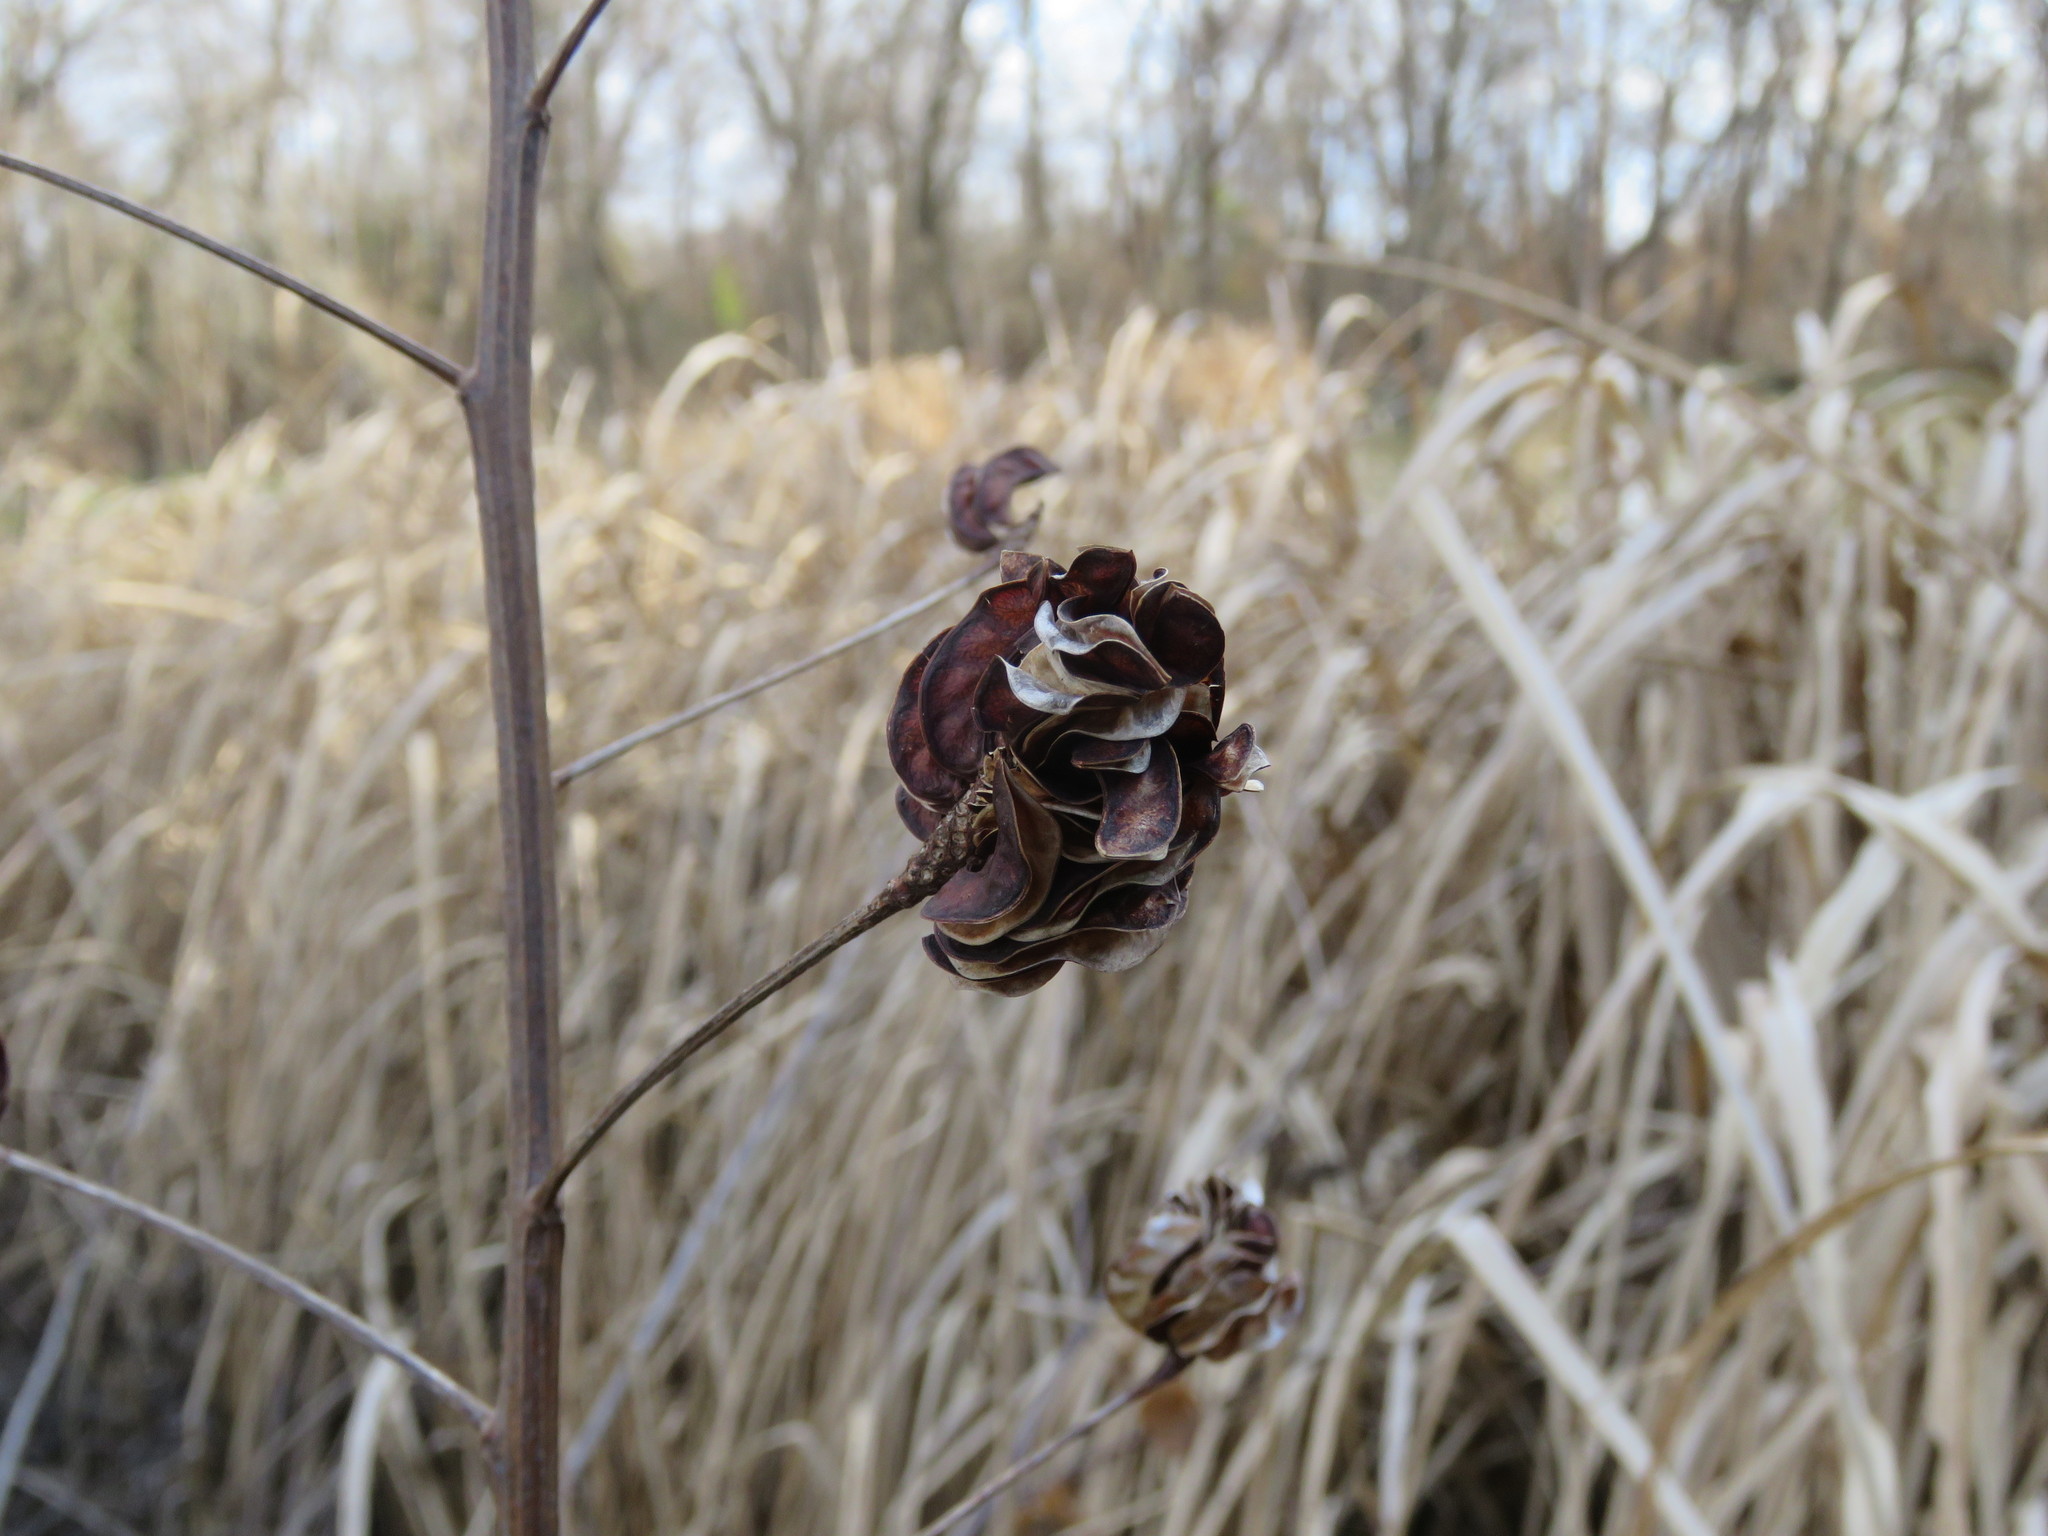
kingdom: Plantae
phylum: Tracheophyta
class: Magnoliopsida
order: Fabales
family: Fabaceae
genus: Desmanthus
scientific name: Desmanthus illinoensis
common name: Illinois bundle-flower
